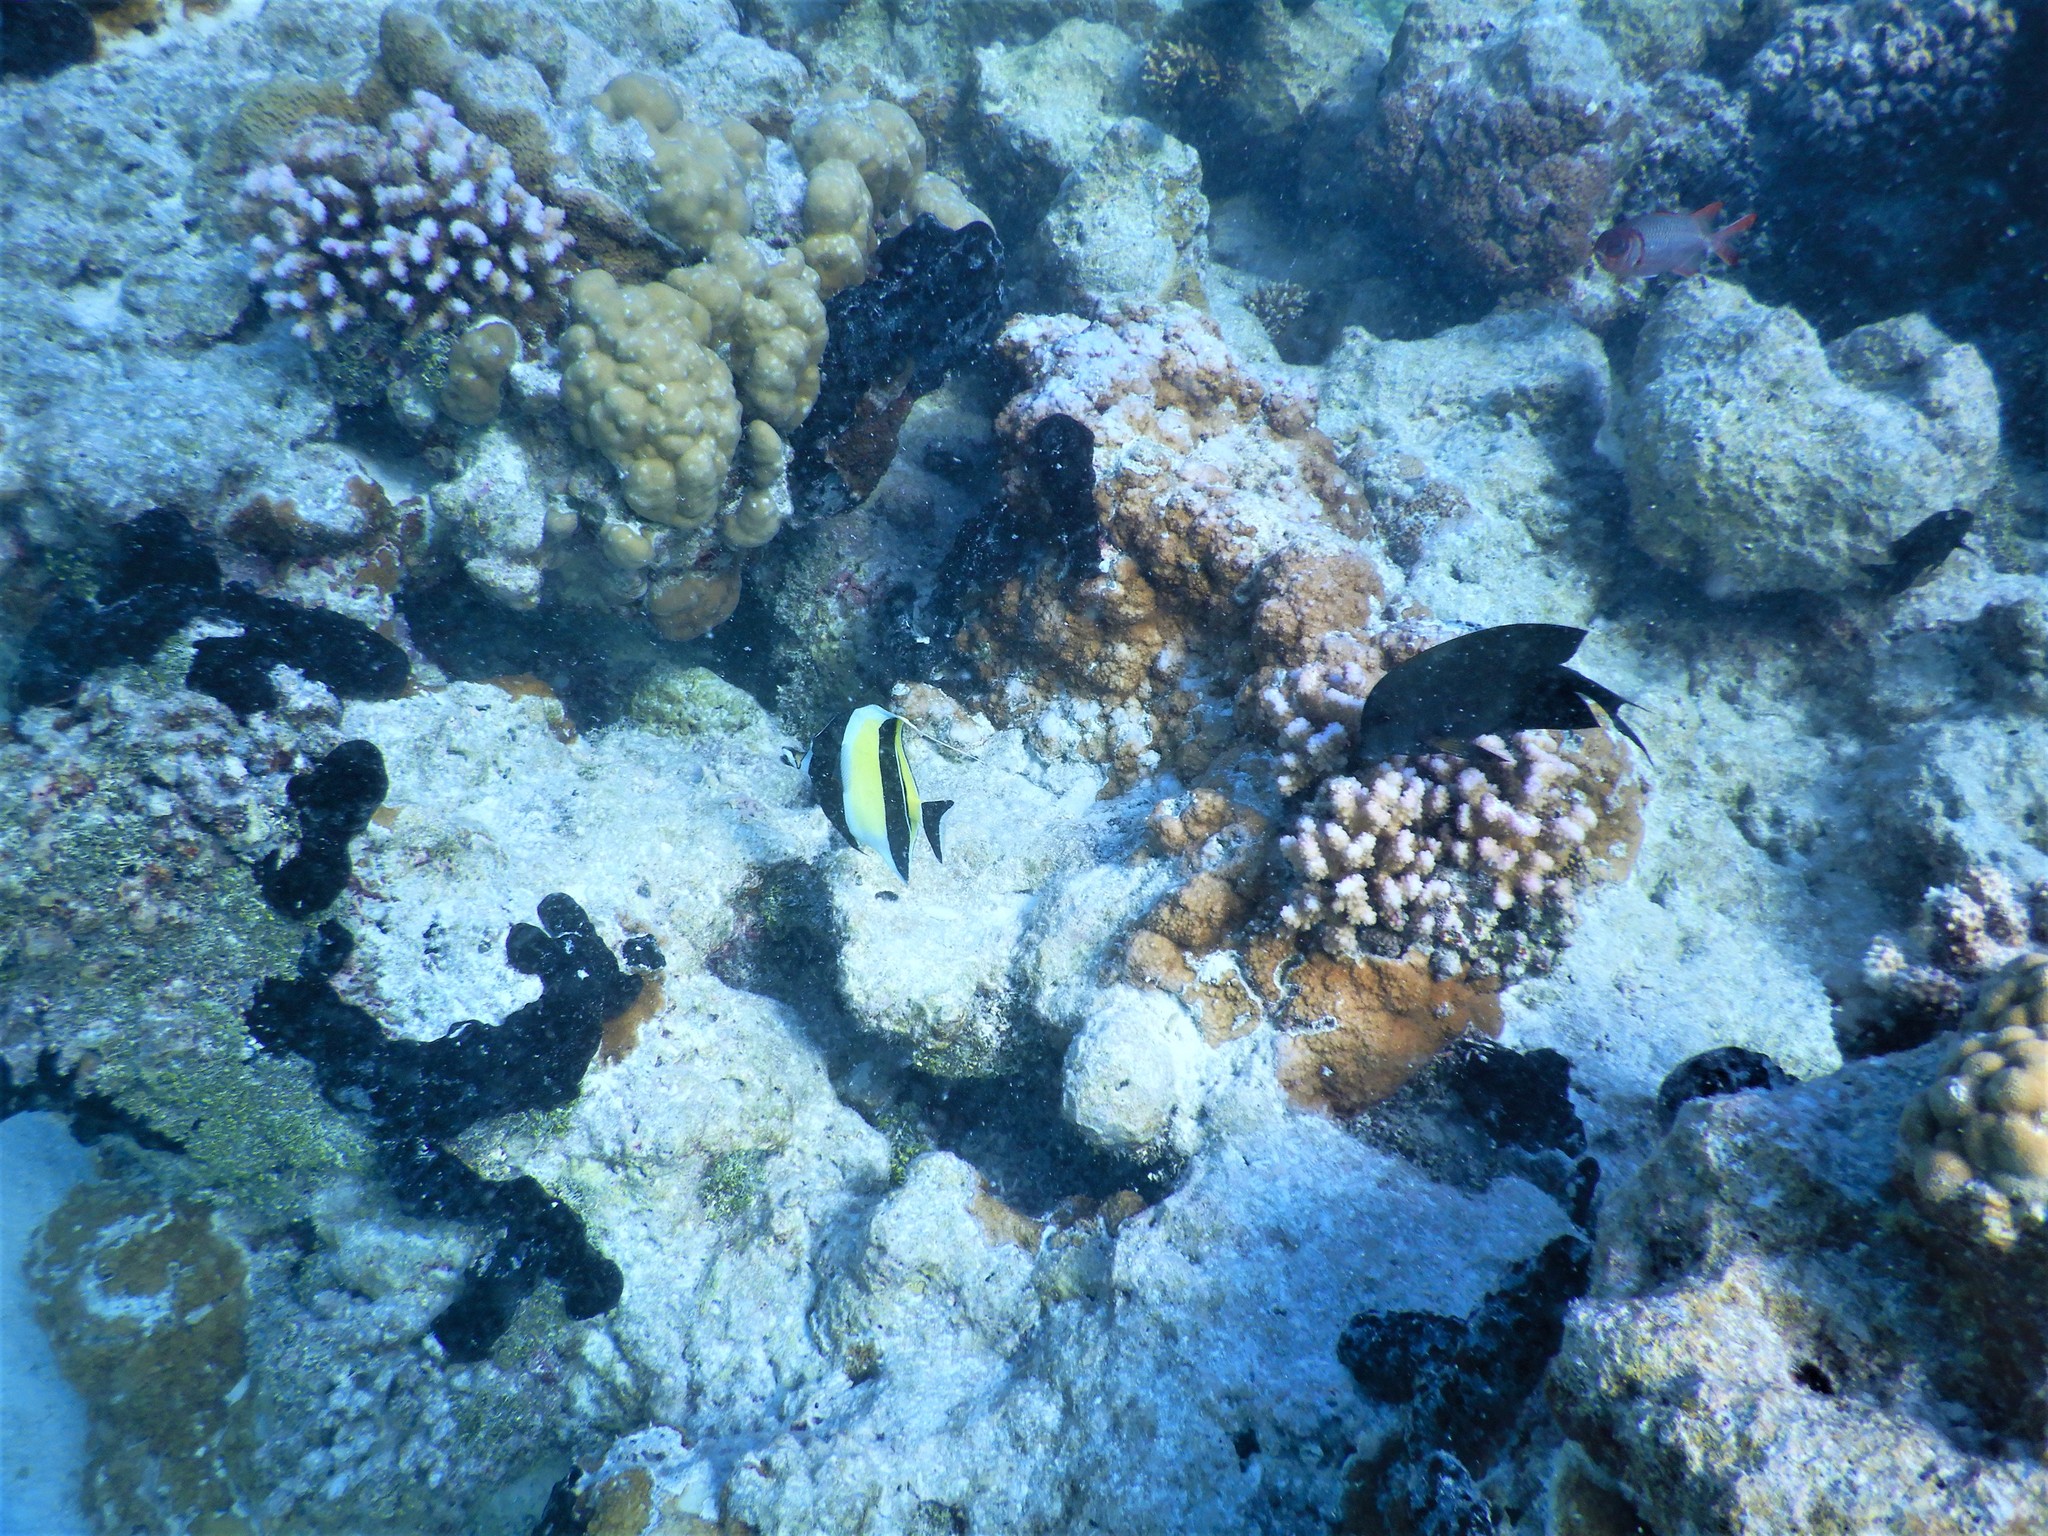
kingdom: Animalia
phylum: Chordata
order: Perciformes
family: Zanclidae
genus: Zanclus
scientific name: Zanclus cornutus
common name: Moorish idol
